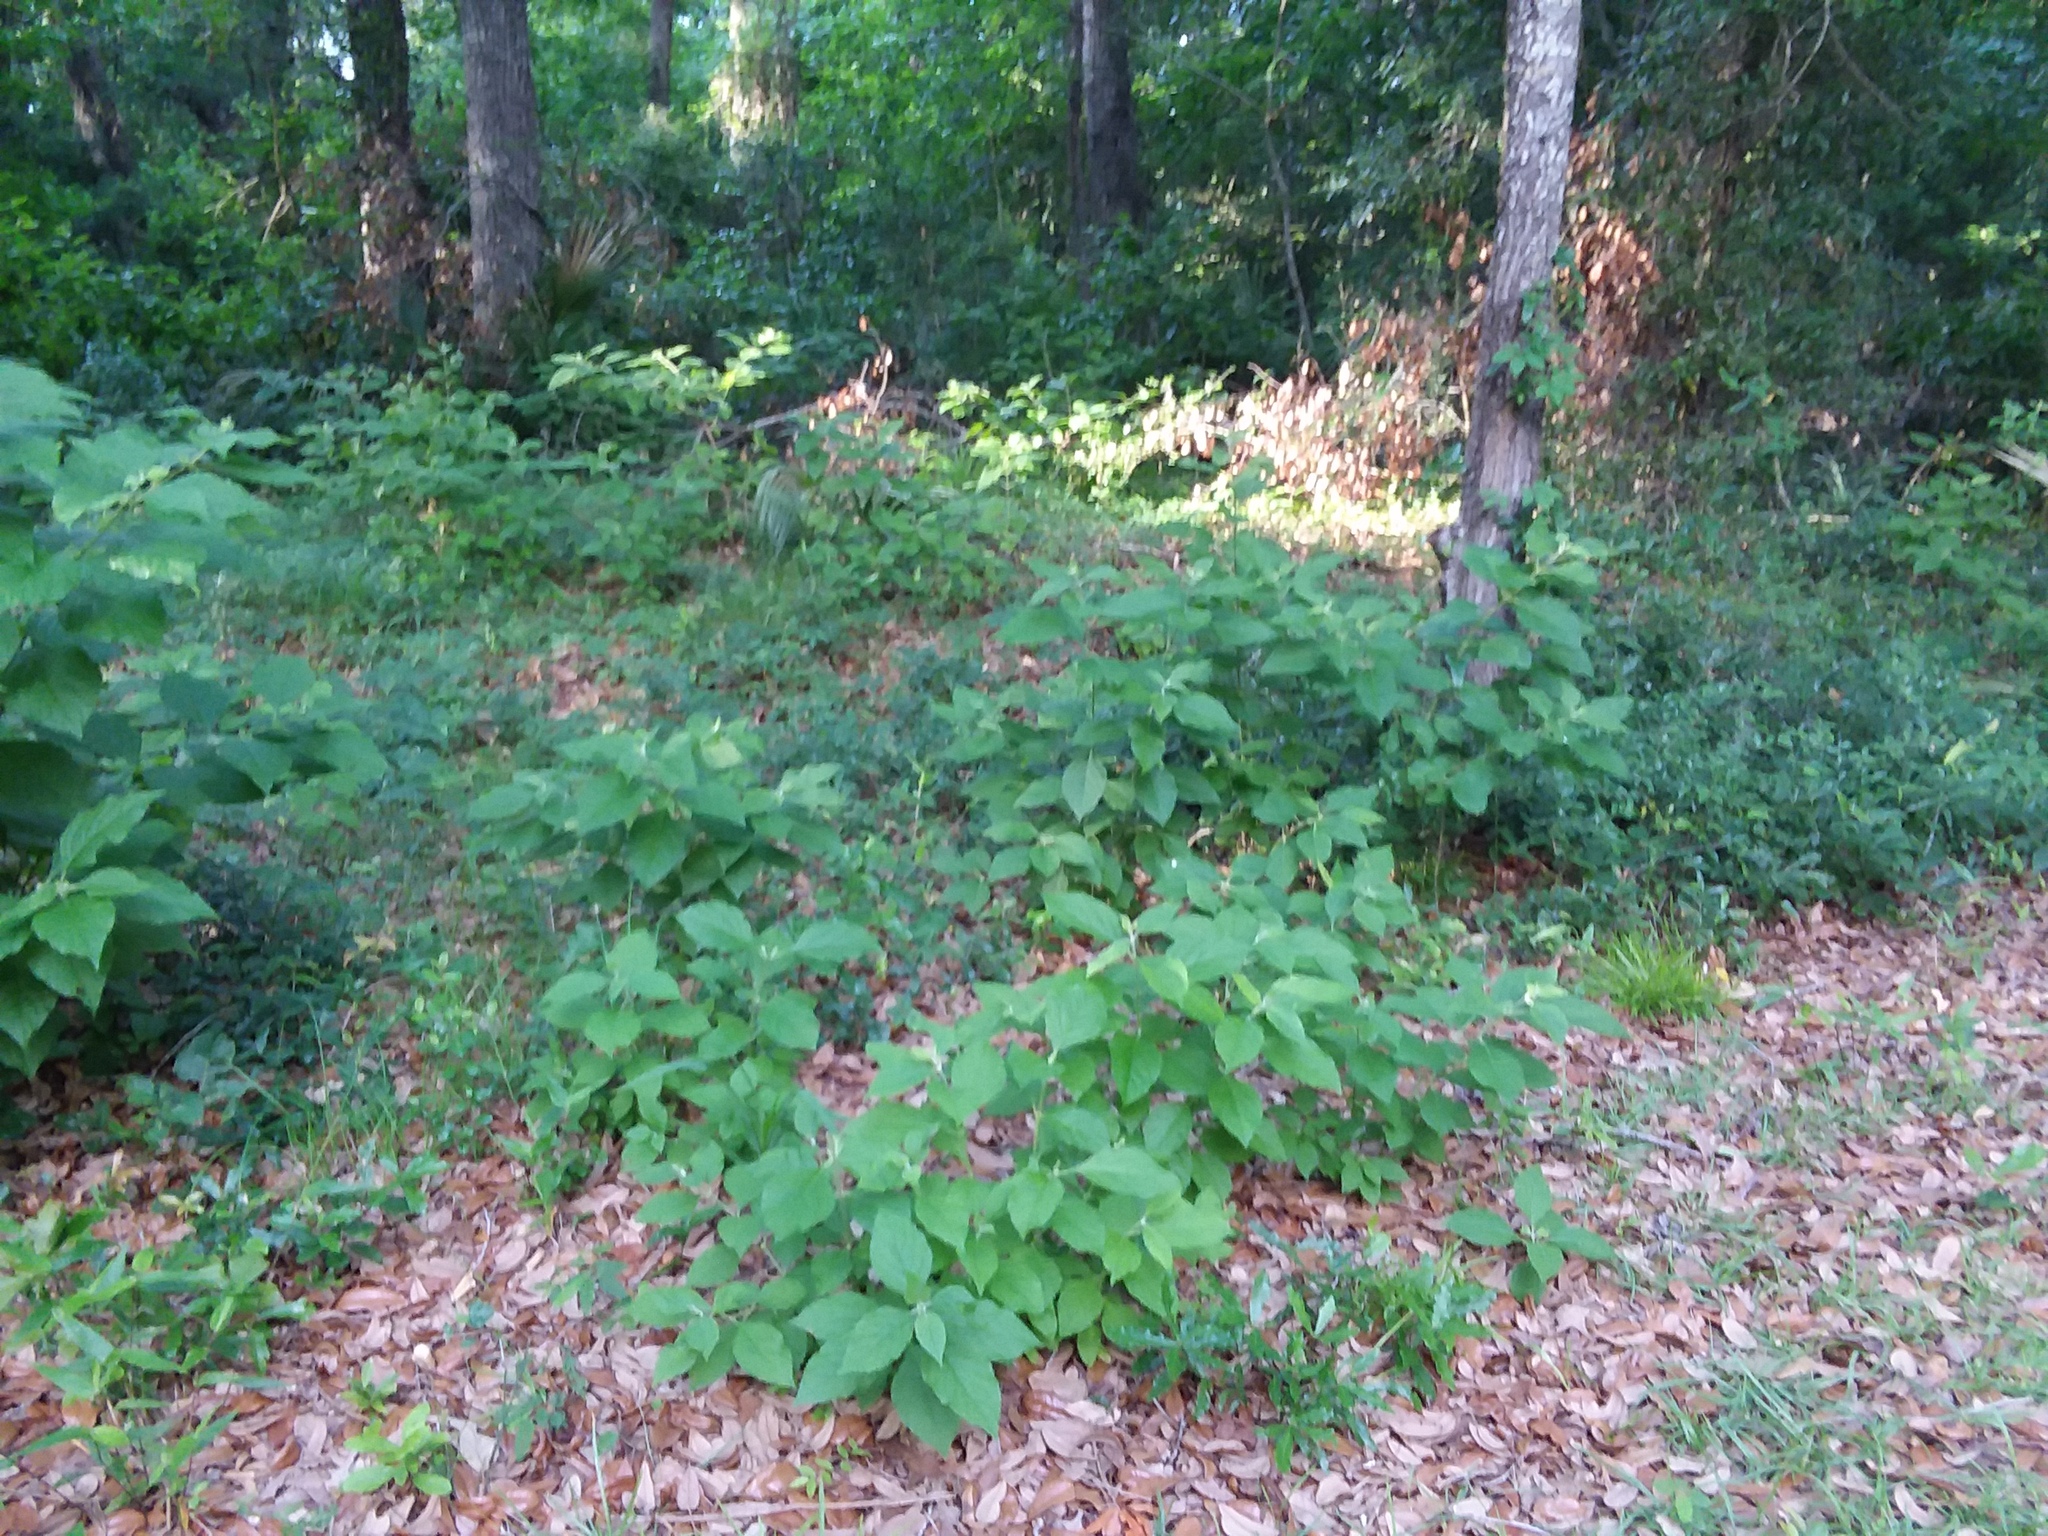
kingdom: Plantae
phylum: Tracheophyta
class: Magnoliopsida
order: Lamiales
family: Lamiaceae
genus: Callicarpa
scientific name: Callicarpa americana
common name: American beautyberry
